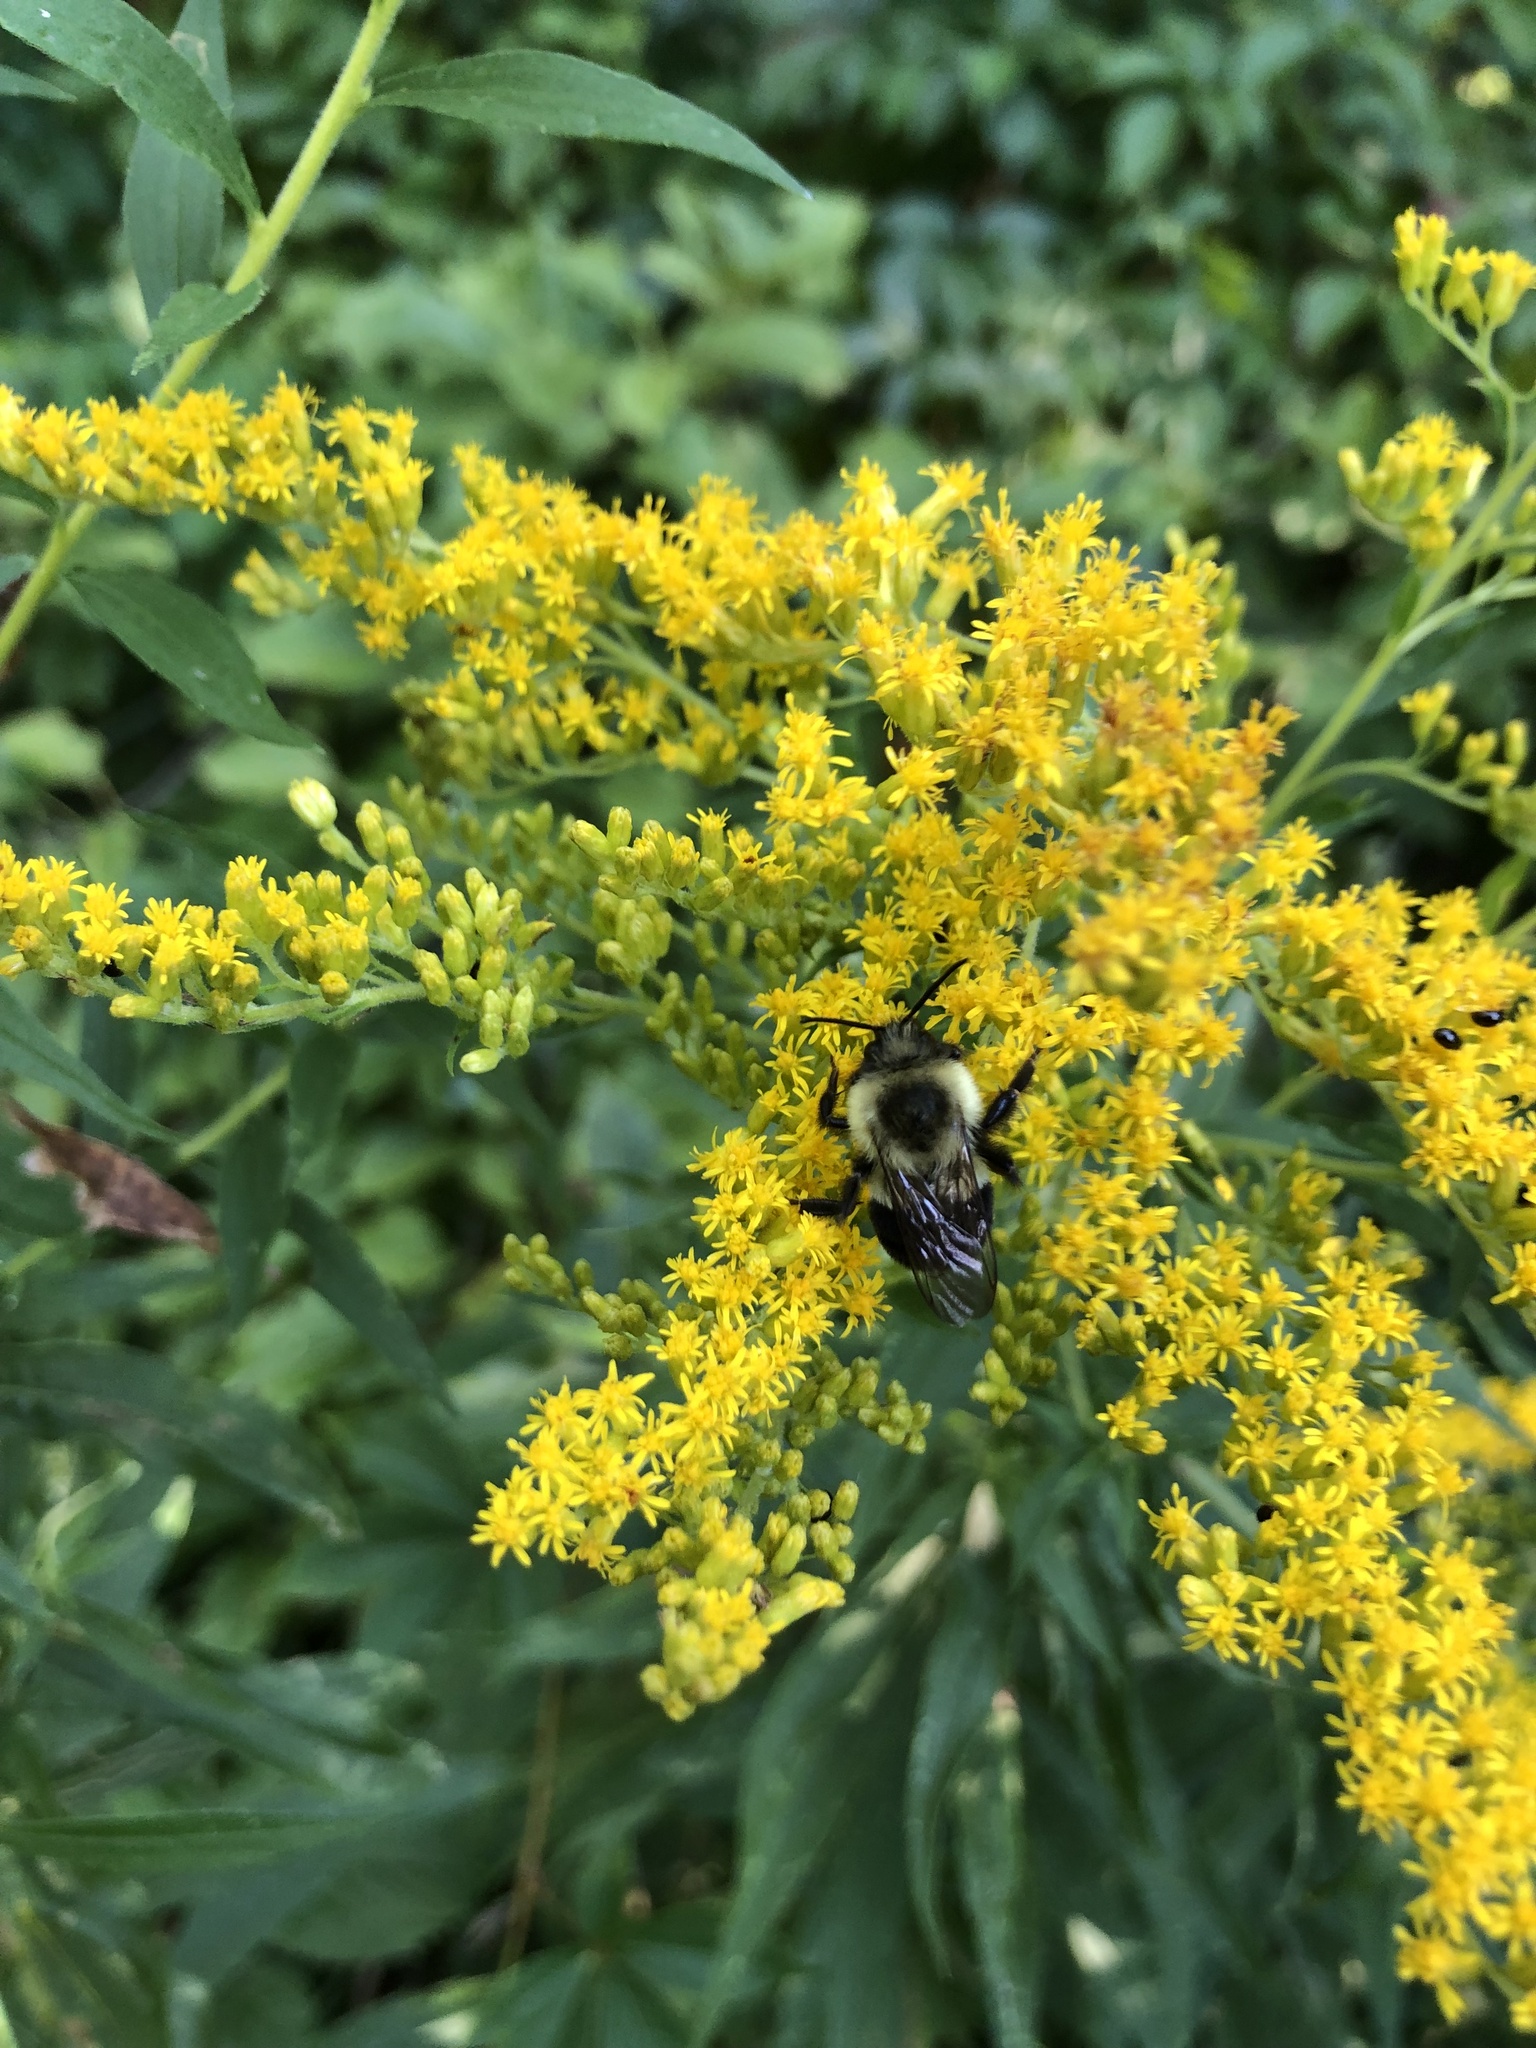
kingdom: Animalia
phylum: Arthropoda
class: Insecta
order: Hymenoptera
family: Apidae
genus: Bombus
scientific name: Bombus impatiens
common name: Common eastern bumble bee
